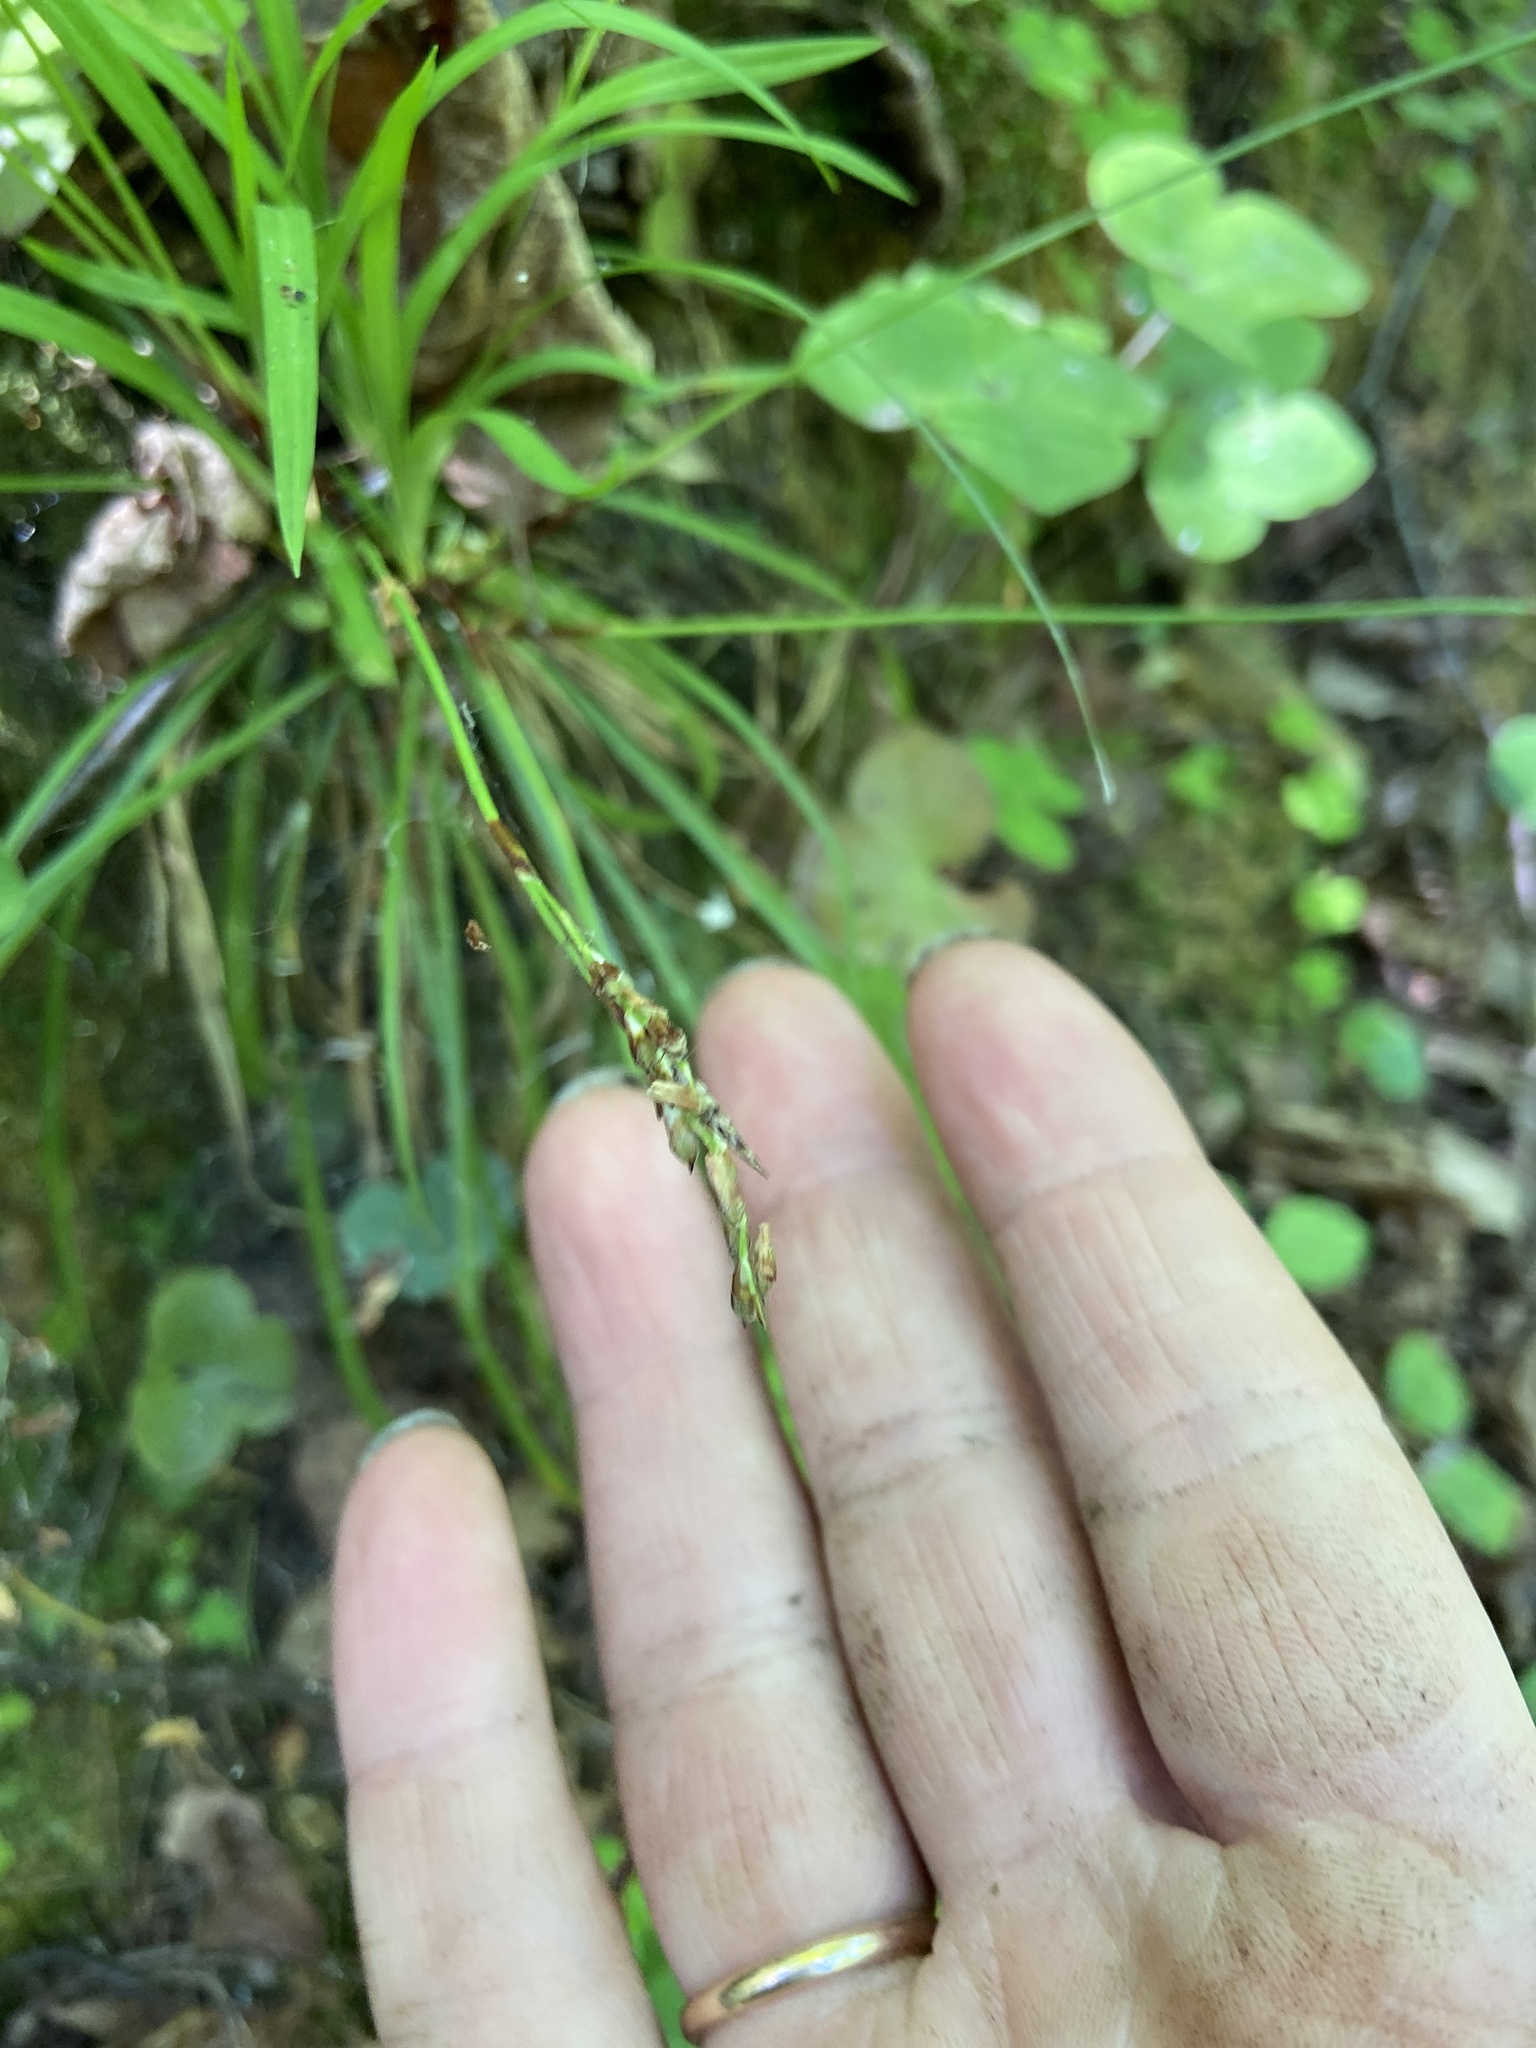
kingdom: Plantae
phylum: Tracheophyta
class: Liliopsida
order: Poales
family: Cyperaceae
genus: Carex
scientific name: Carex digitata
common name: Fingered sedge
